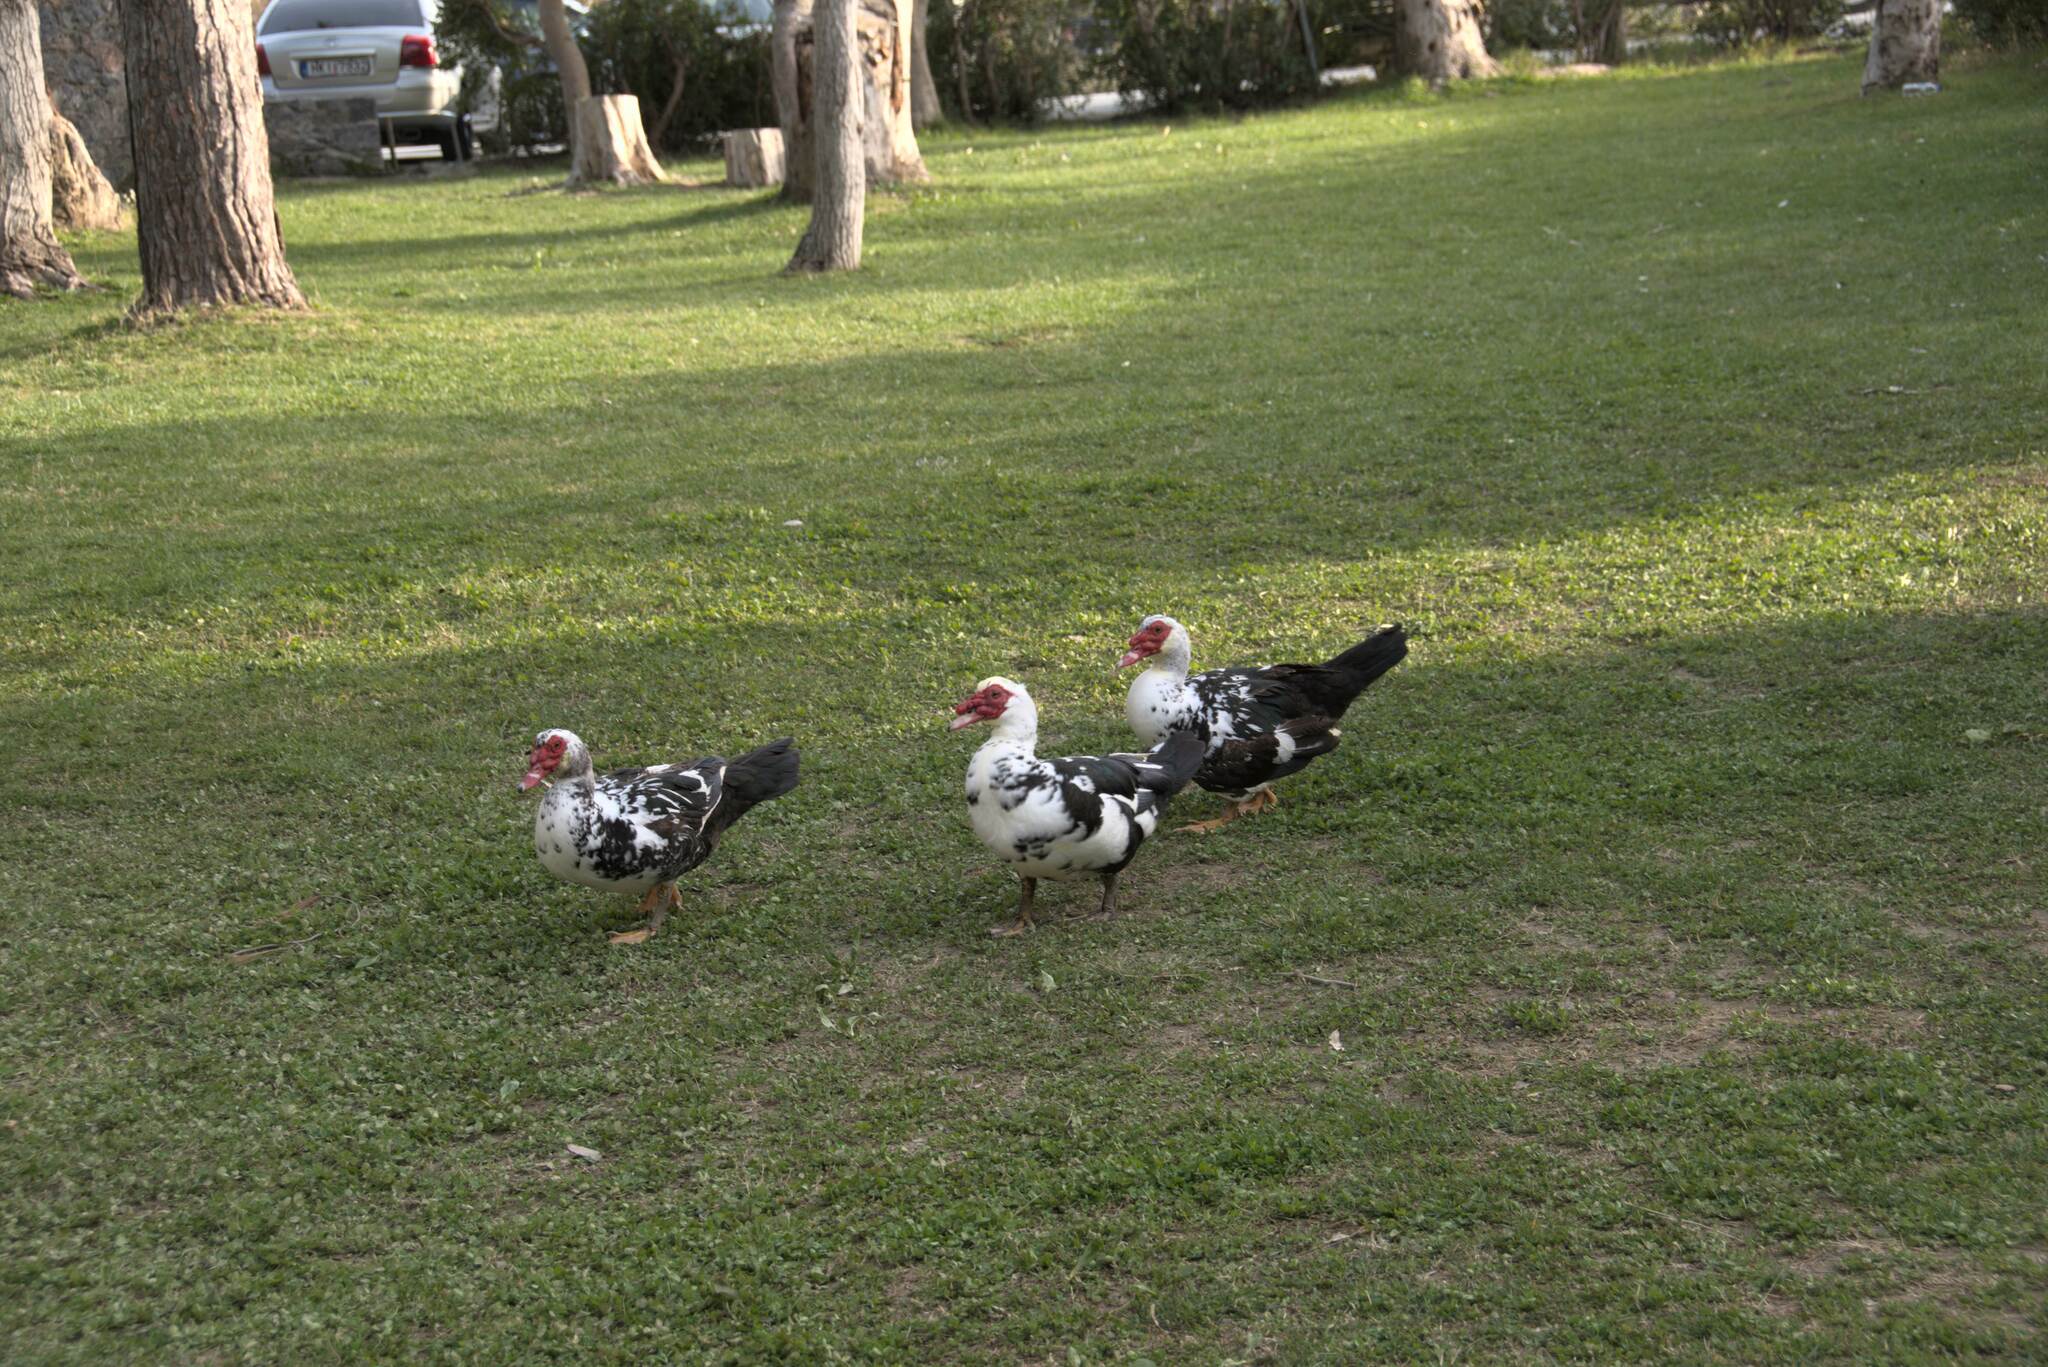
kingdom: Animalia
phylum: Chordata
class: Aves
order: Anseriformes
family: Anatidae
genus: Cairina
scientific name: Cairina moschata
